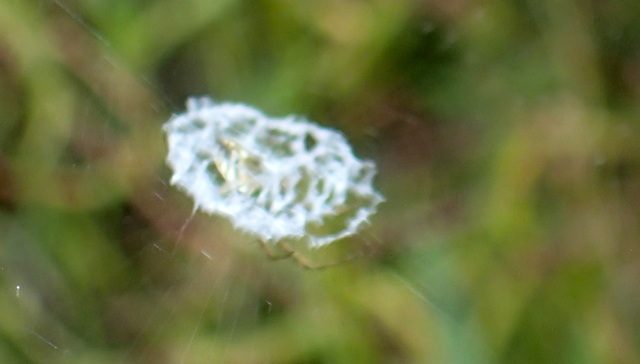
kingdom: Animalia
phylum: Arthropoda
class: Arachnida
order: Araneae
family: Araneidae
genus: Mangora
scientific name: Mangora gibberosa
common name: Lined orbweaver
